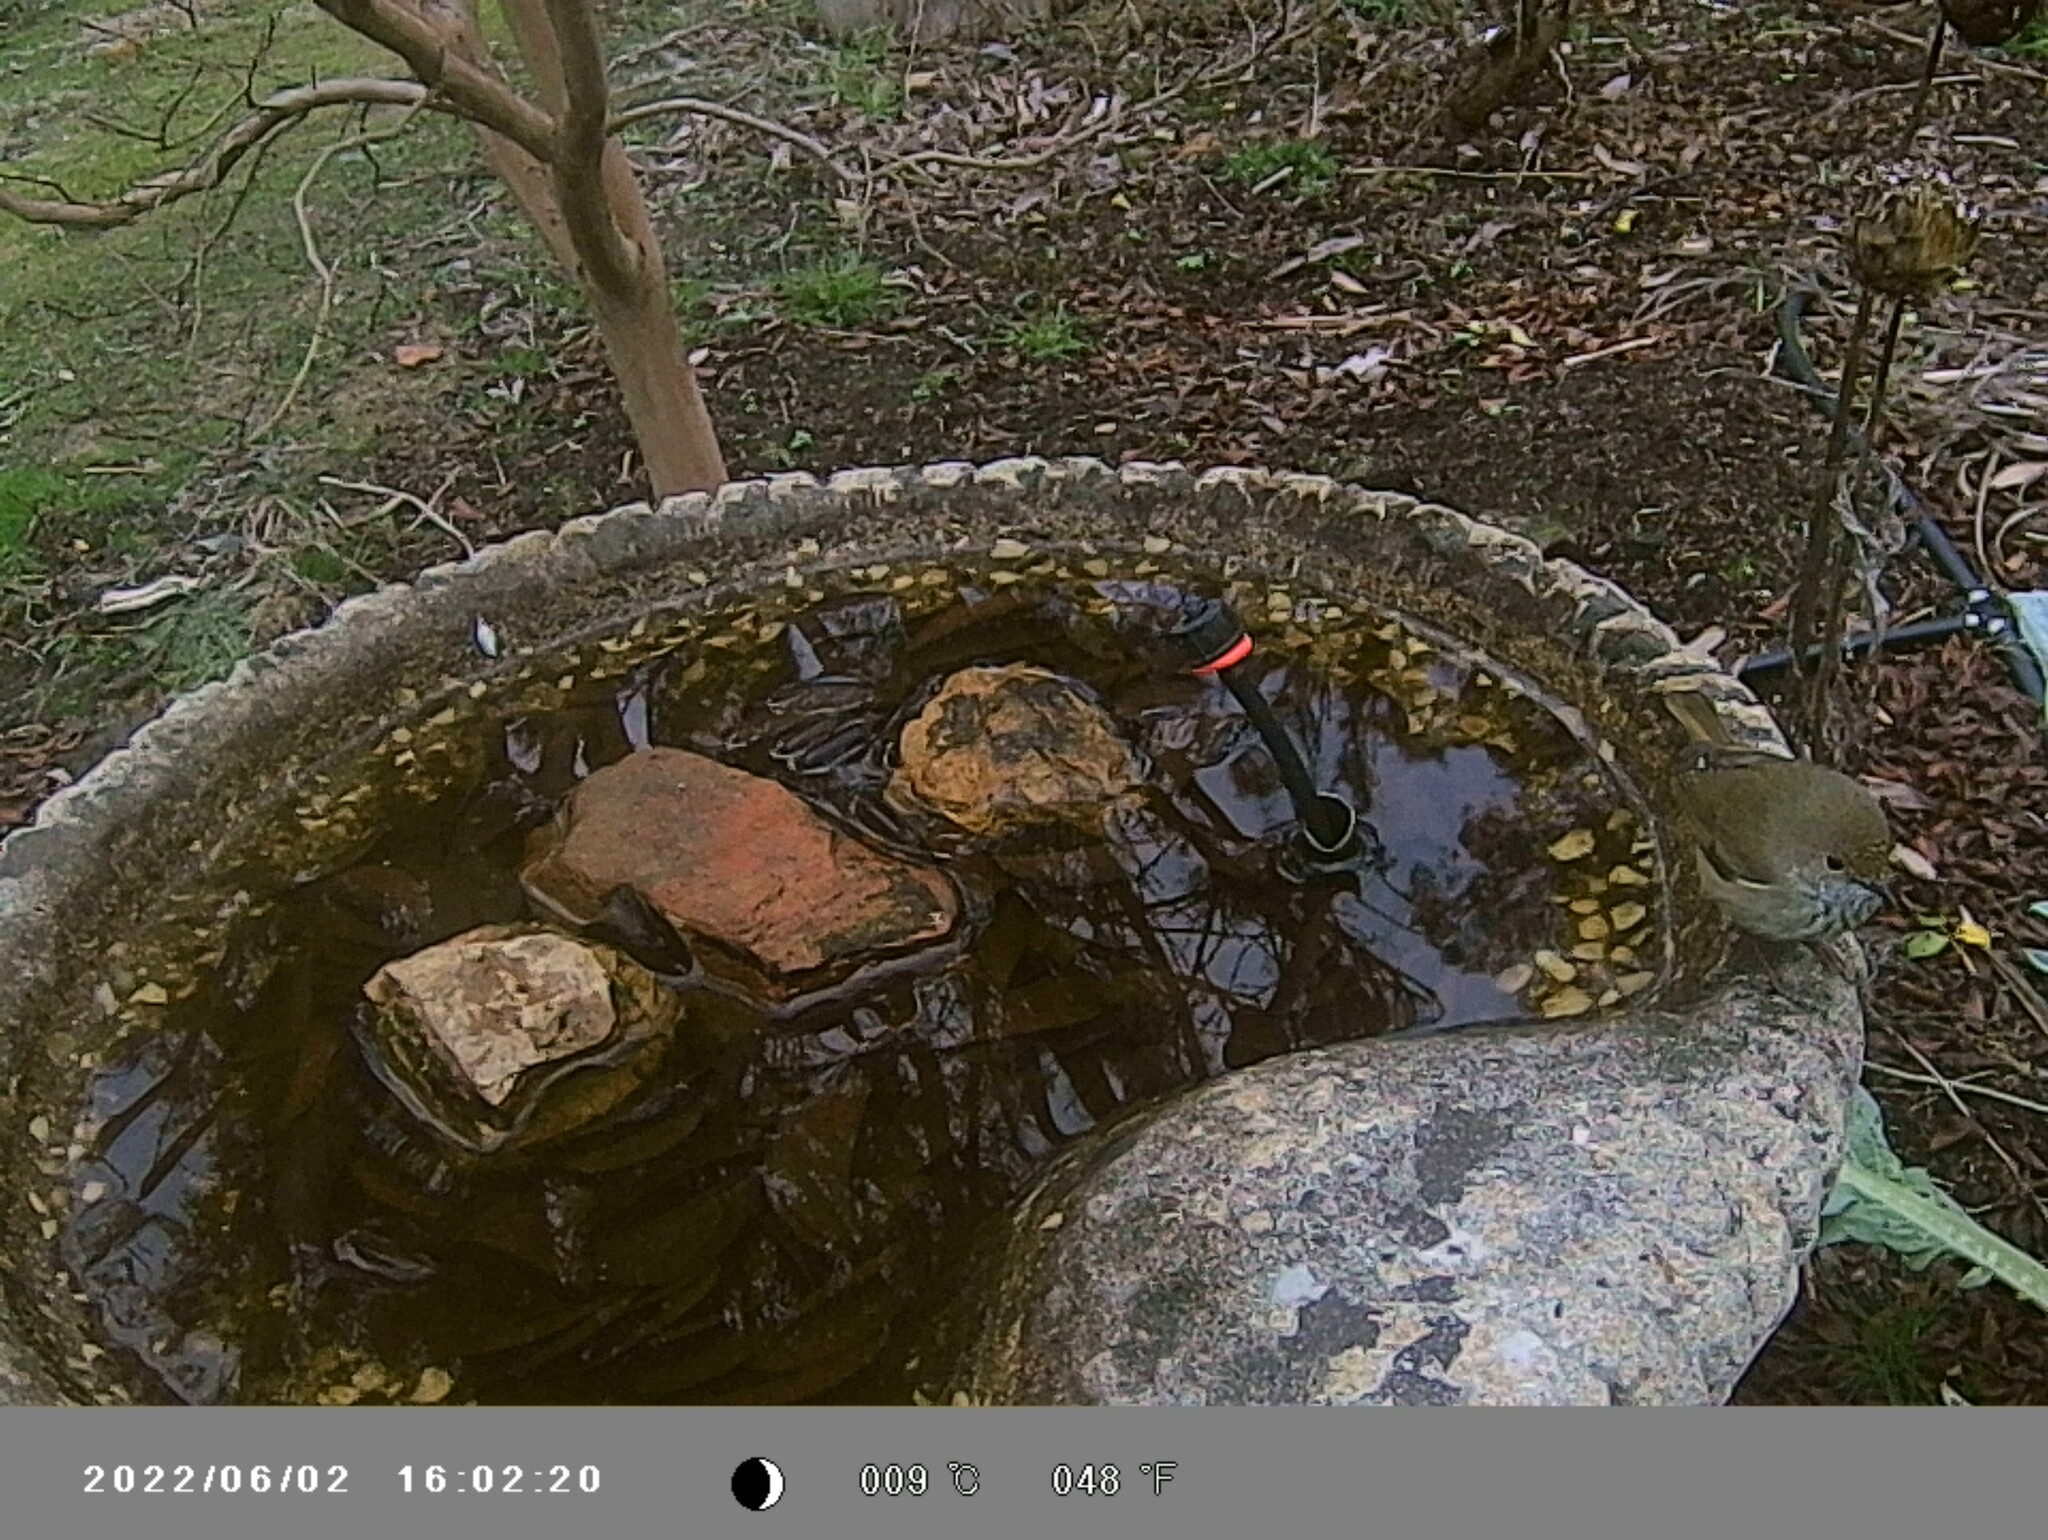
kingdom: Animalia
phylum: Chordata
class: Aves
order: Passeriformes
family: Acanthizidae
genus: Acanthiza
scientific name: Acanthiza pusilla
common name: Brown thornbill
